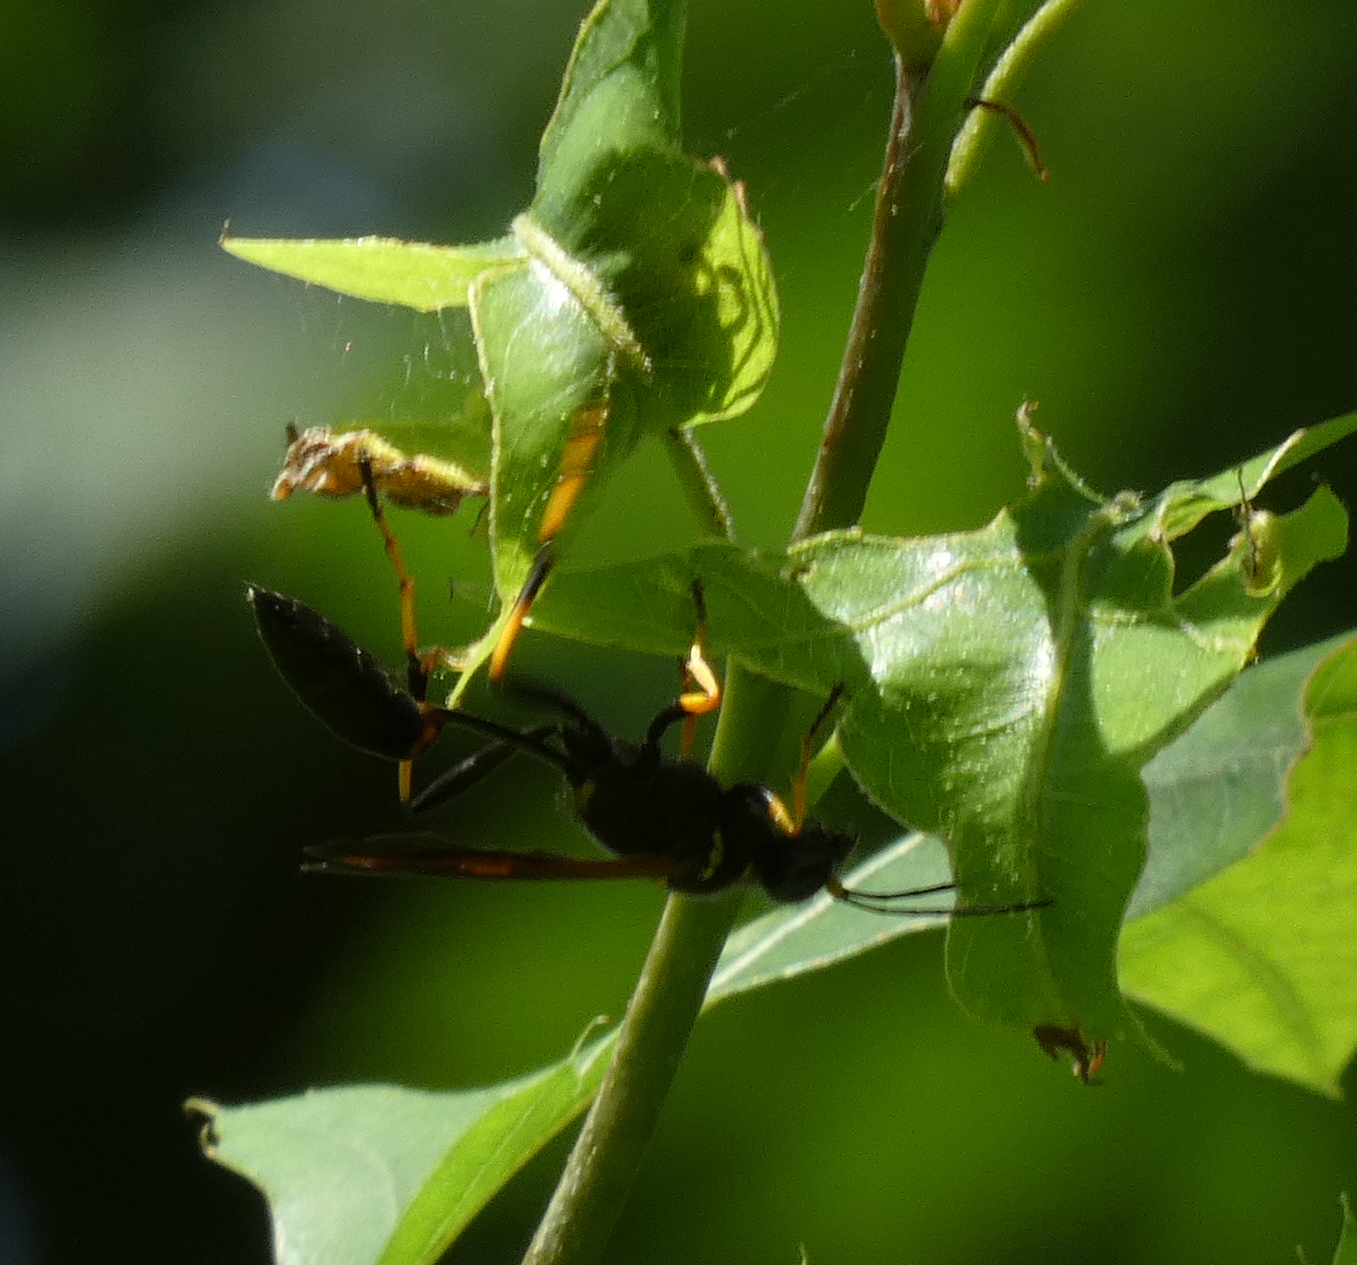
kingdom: Animalia
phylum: Arthropoda
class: Insecta
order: Hymenoptera
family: Sphecidae
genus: Sceliphron
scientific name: Sceliphron caementarium
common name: Mud dauber
